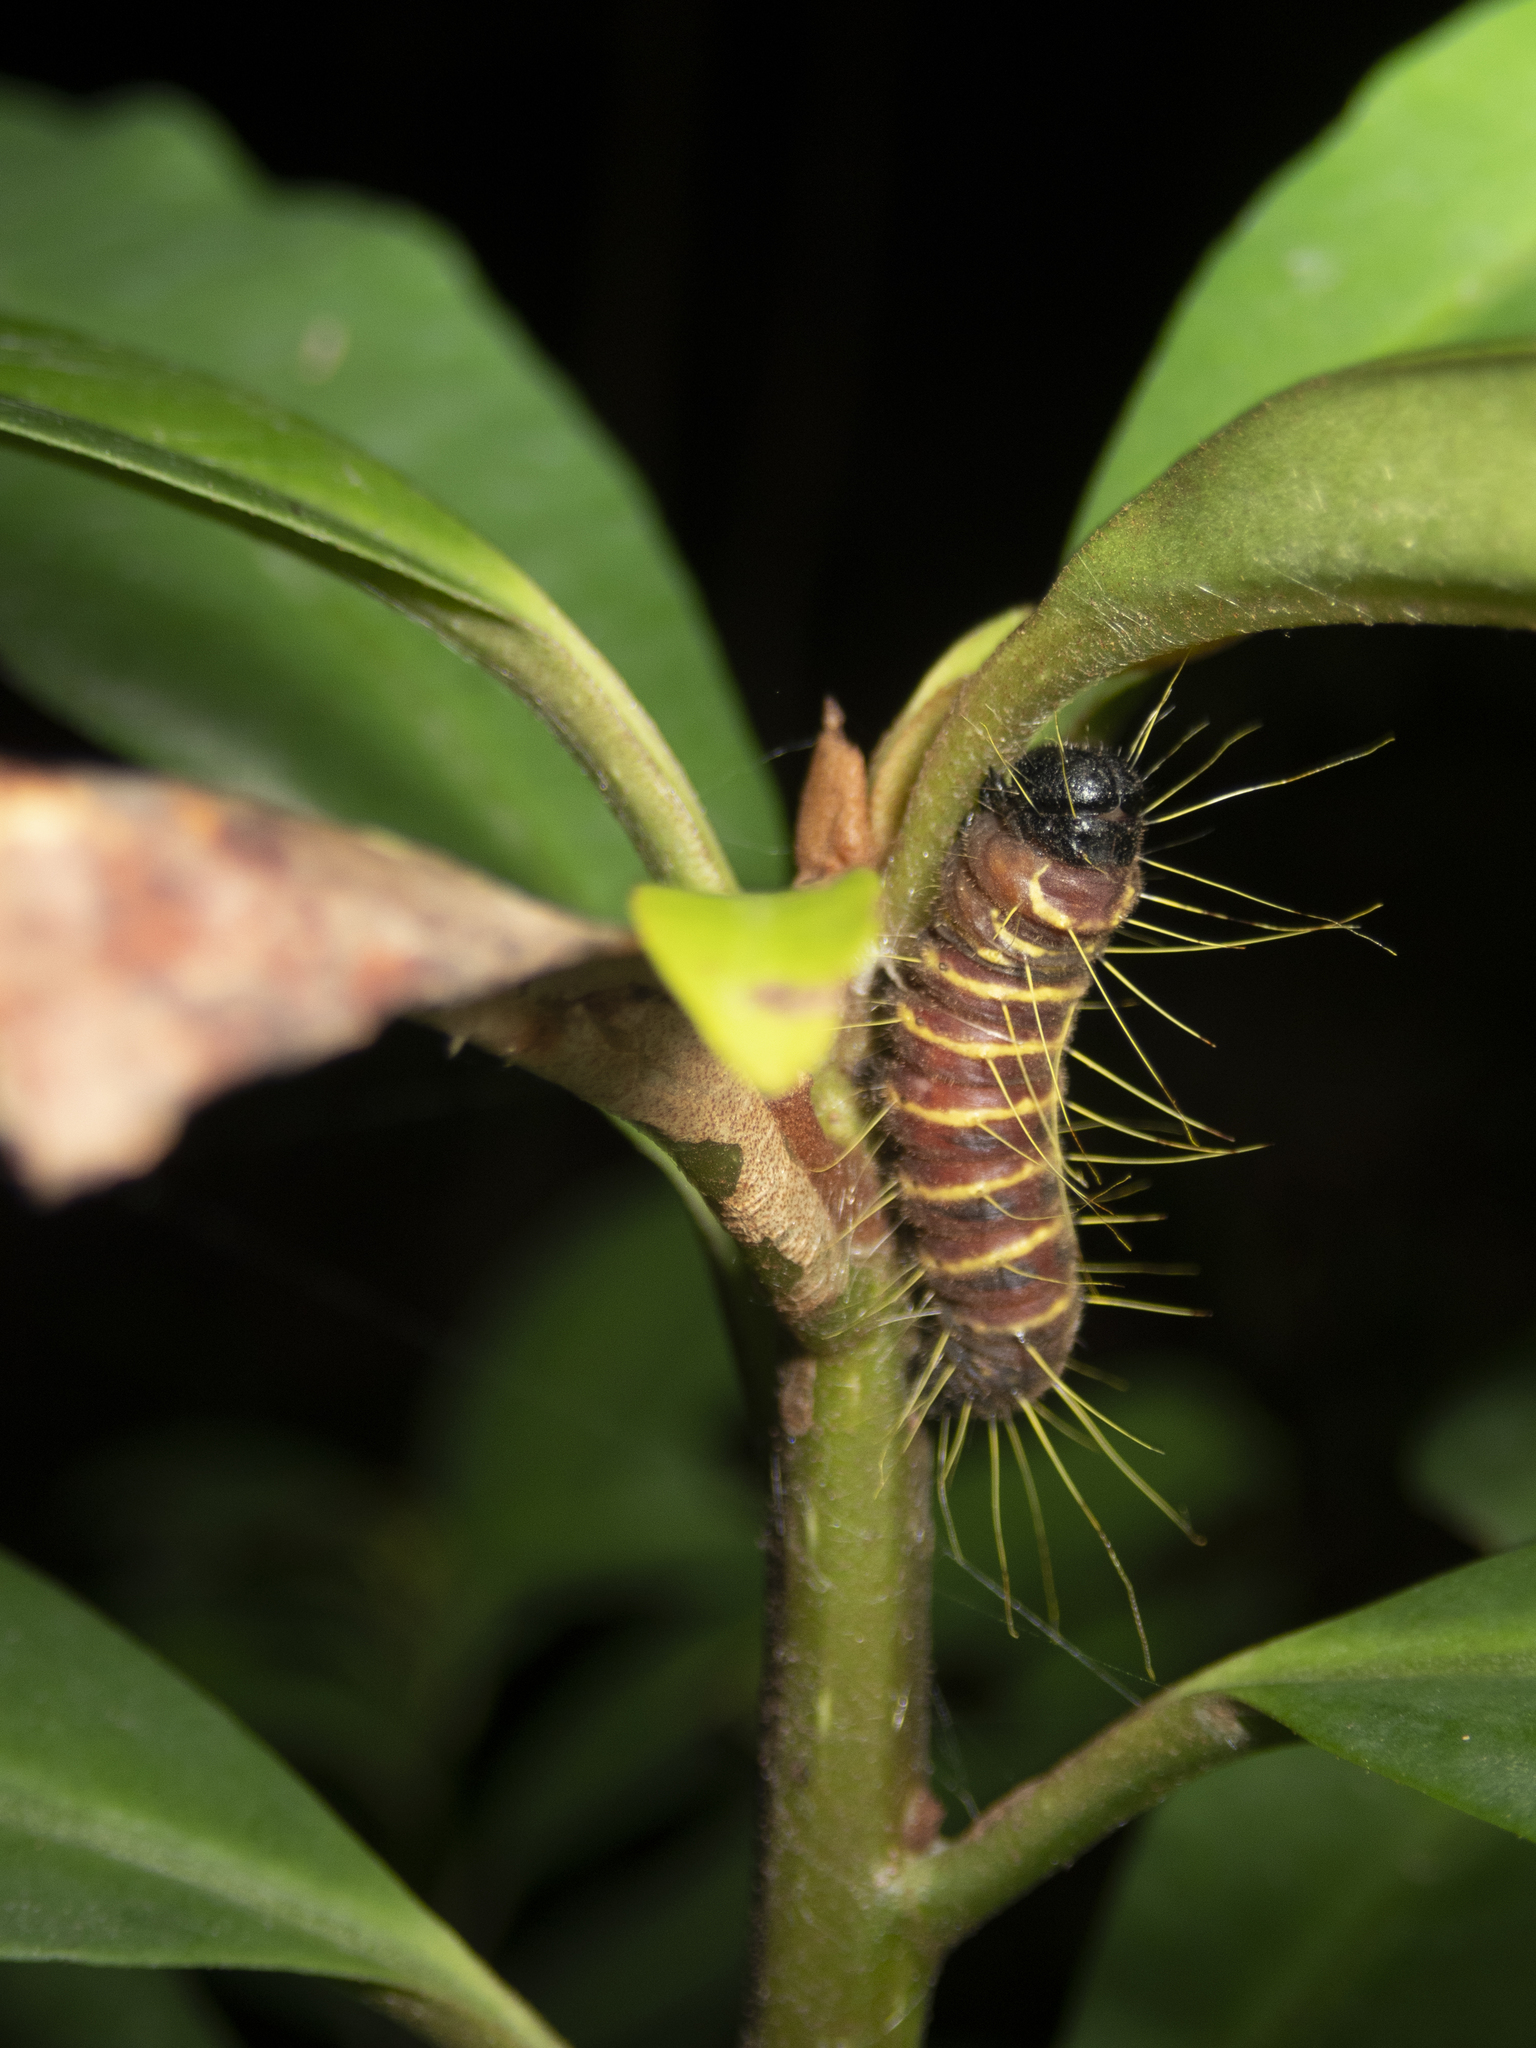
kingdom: Animalia
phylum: Arthropoda
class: Insecta
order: Lepidoptera
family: Pieridae
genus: Delias
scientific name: Delias pasithoe
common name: Red-base jezebel
